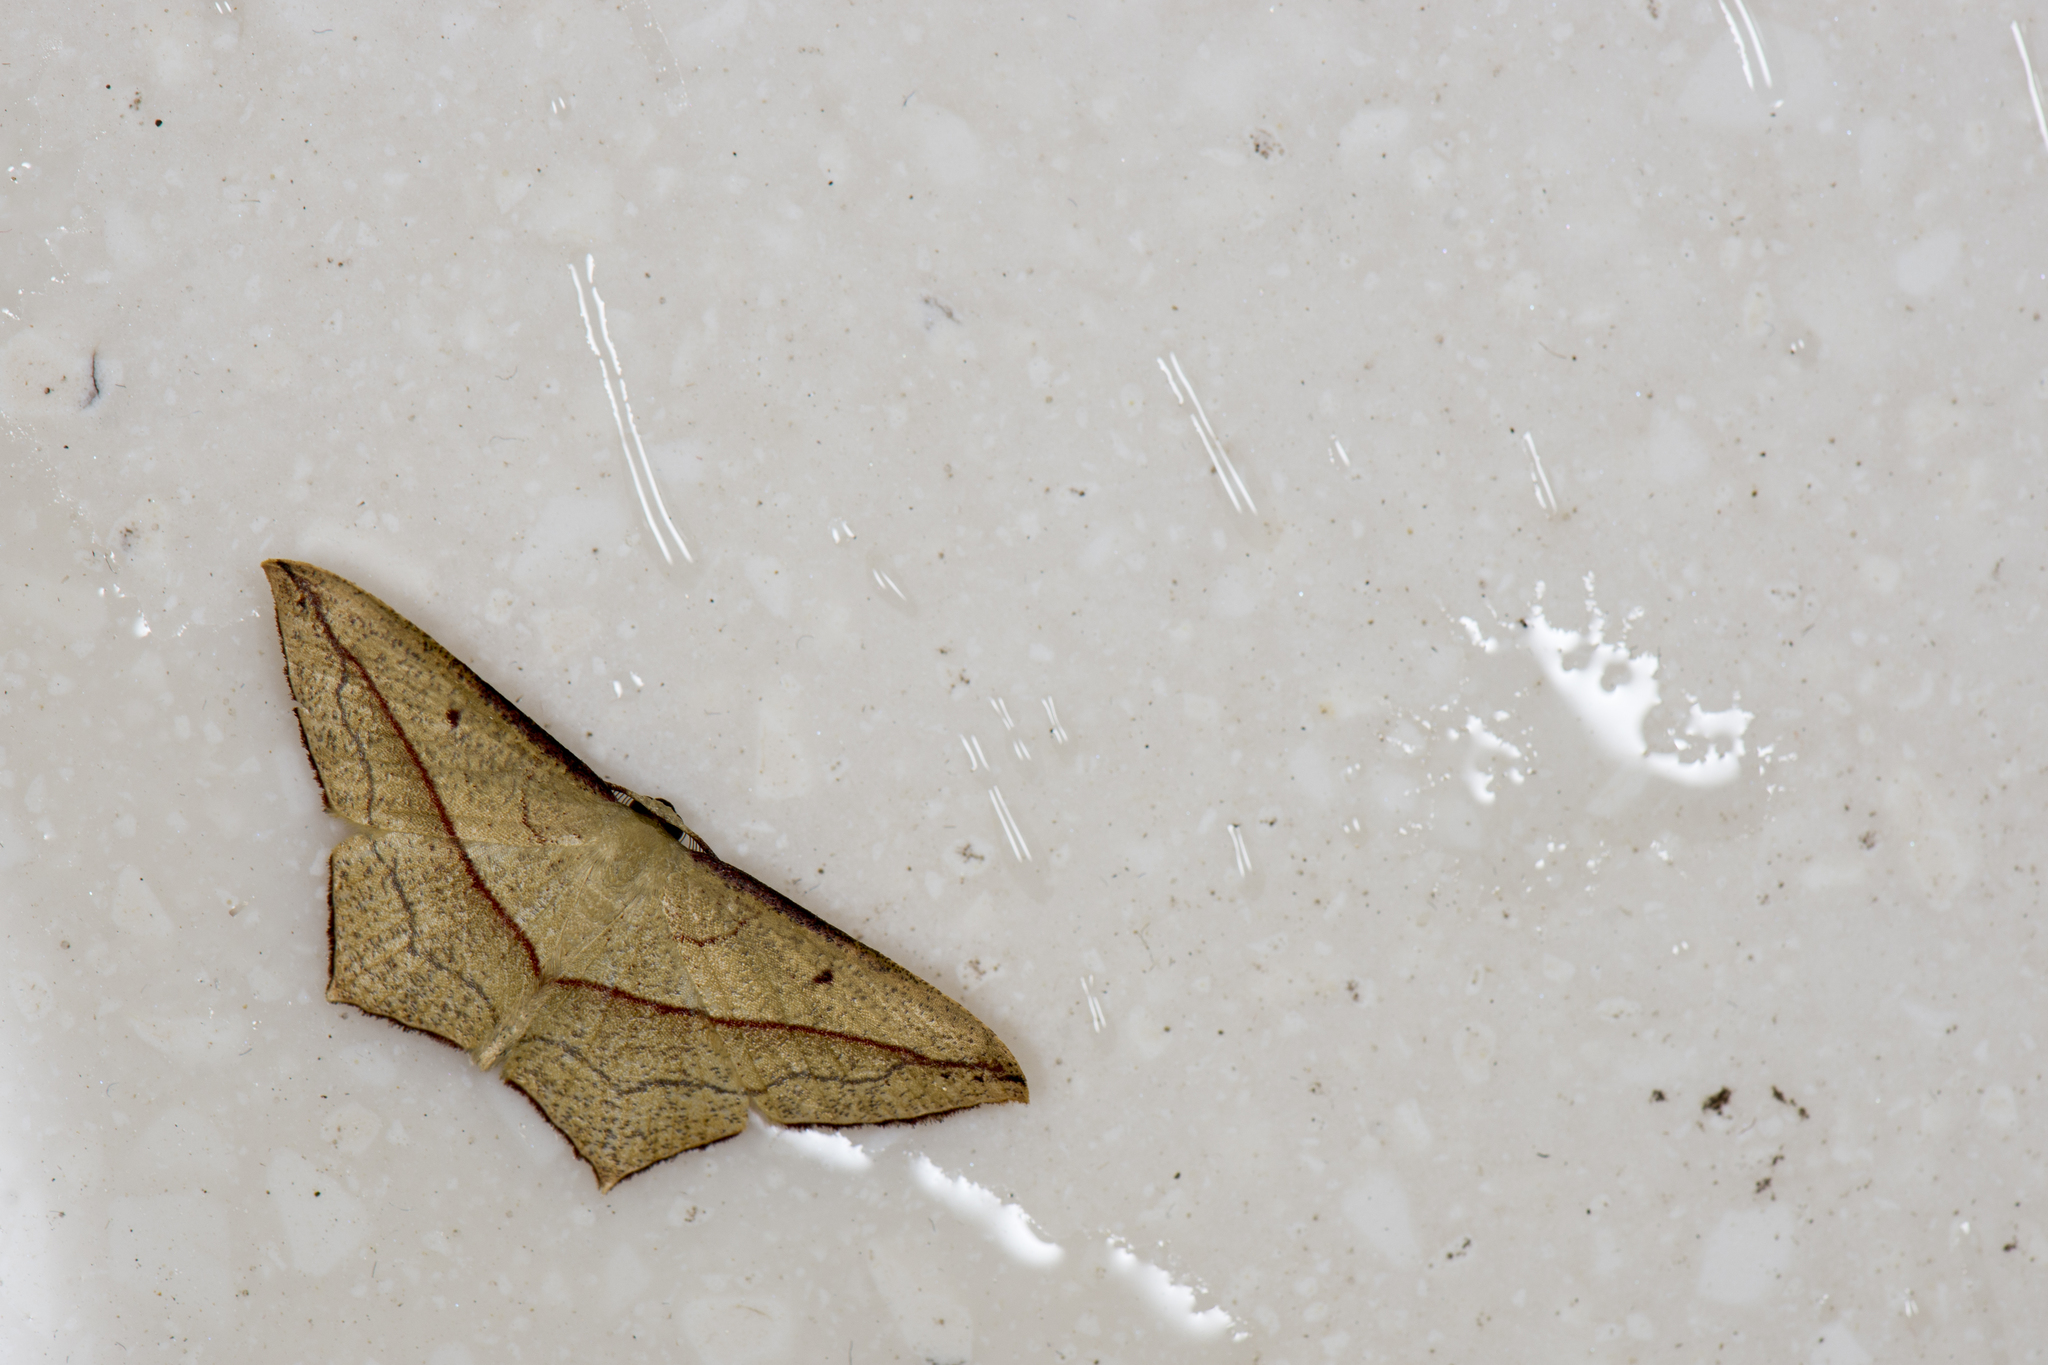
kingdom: Animalia
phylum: Arthropoda
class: Insecta
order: Lepidoptera
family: Geometridae
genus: Timandra
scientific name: Timandra convectaria
